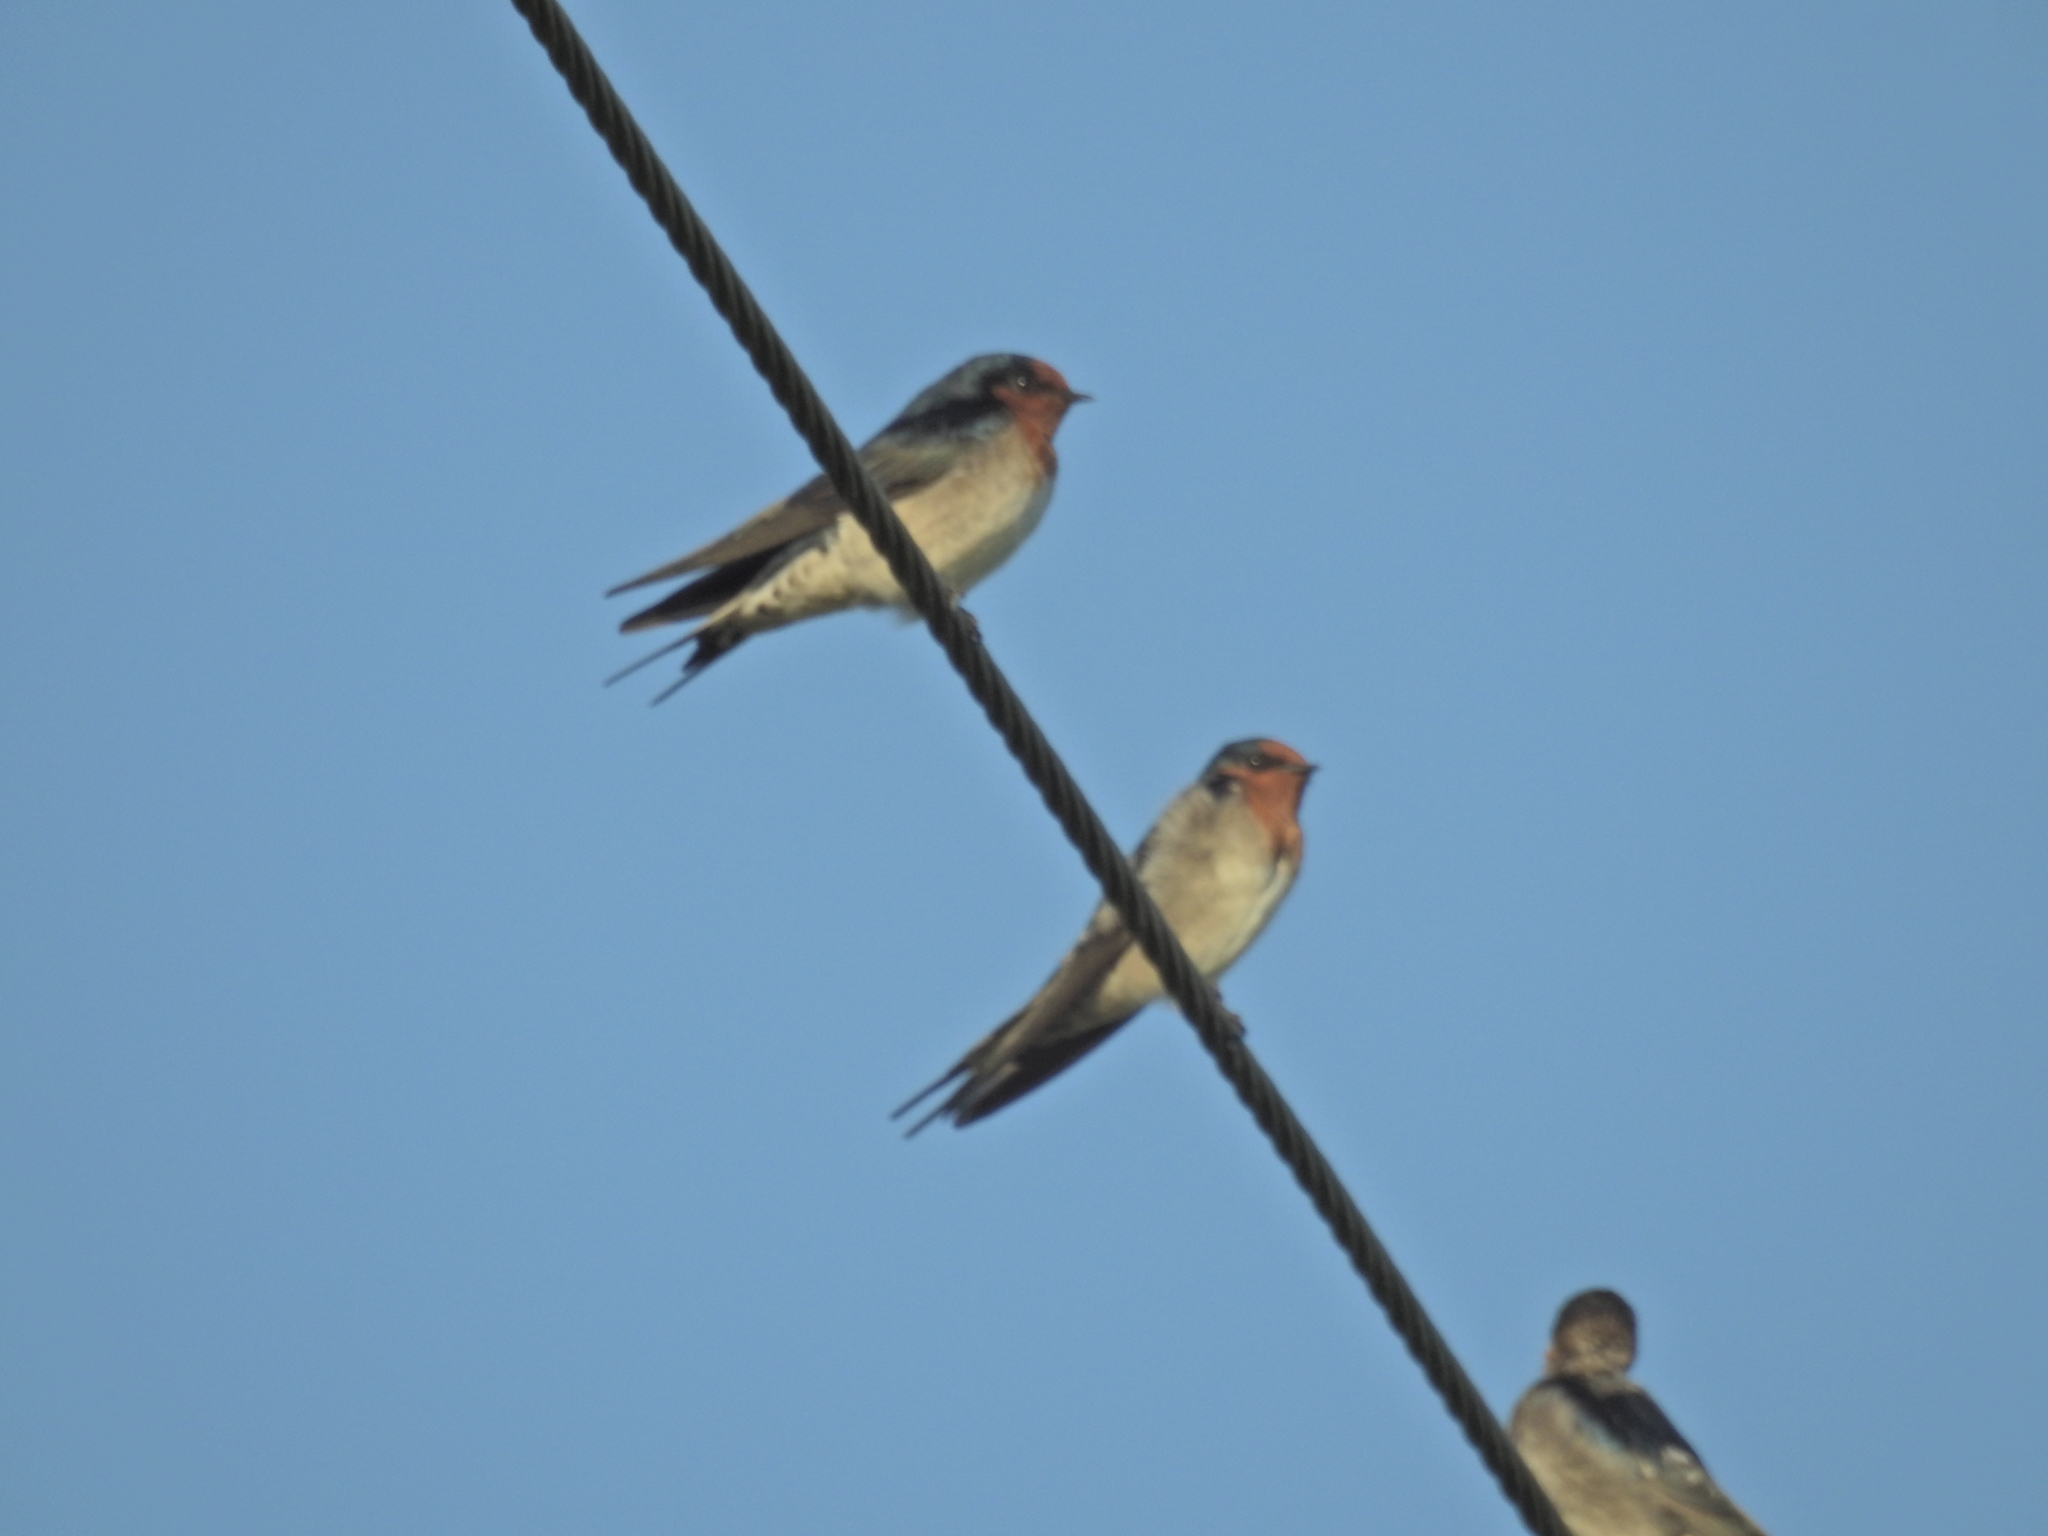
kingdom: Animalia
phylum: Chordata
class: Aves
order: Passeriformes
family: Hirundinidae
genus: Hirundo
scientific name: Hirundo neoxena
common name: Welcome swallow
